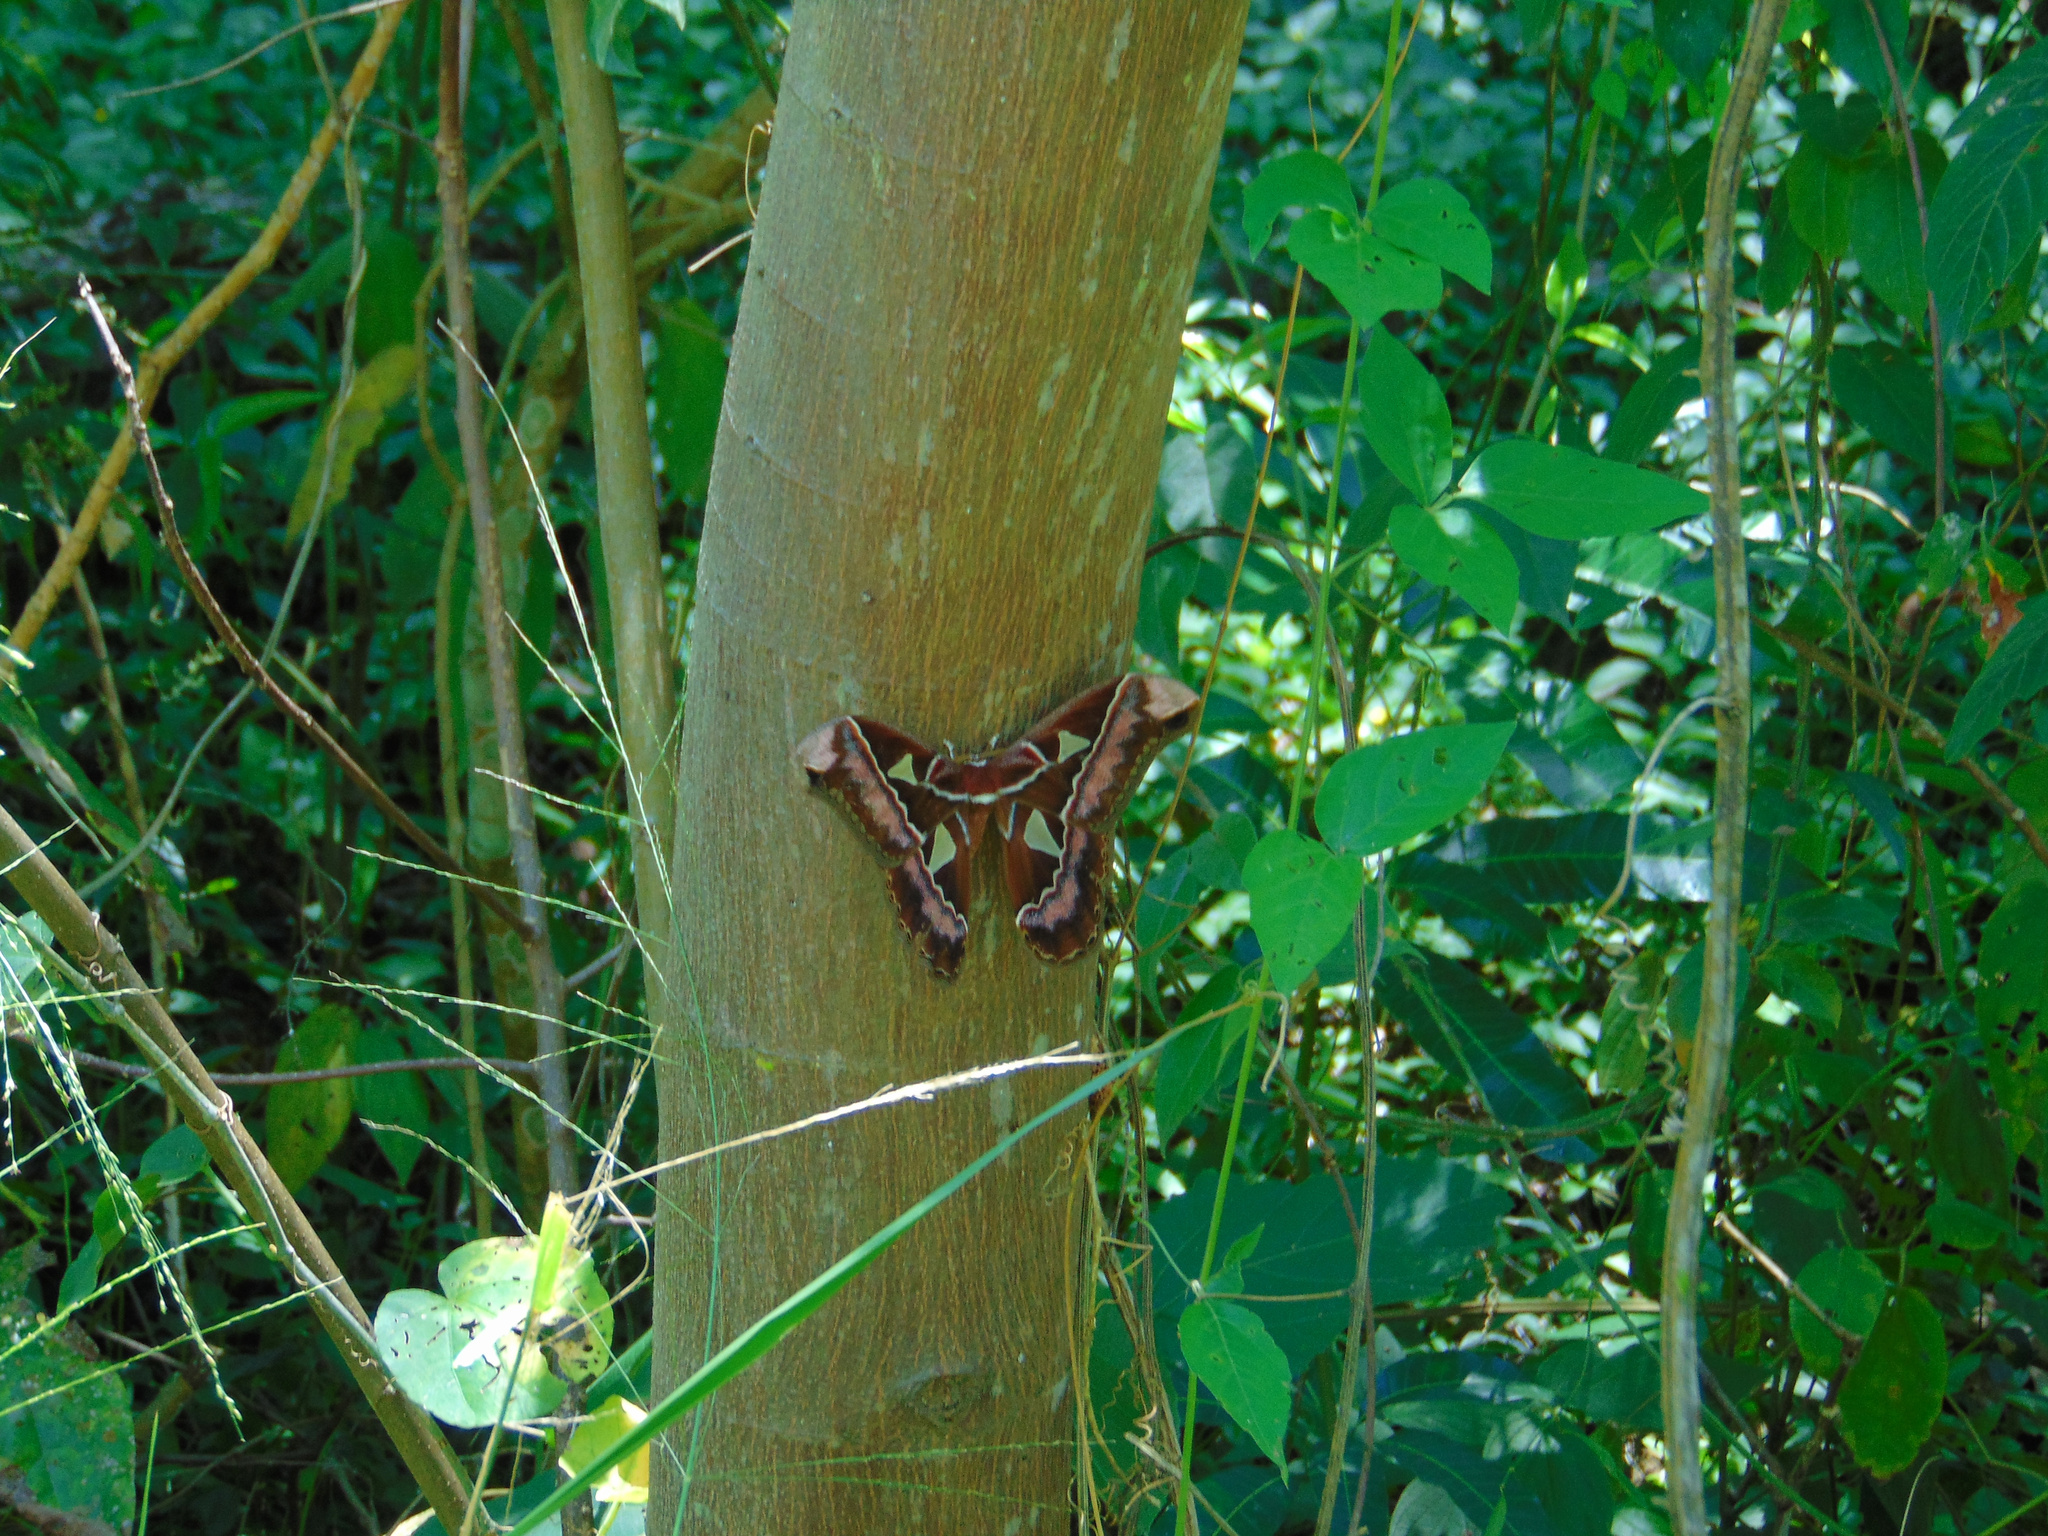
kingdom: Animalia
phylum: Arthropoda
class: Insecta
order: Lepidoptera
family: Saturniidae
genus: Rothschildia
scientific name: Rothschildia speculifer
